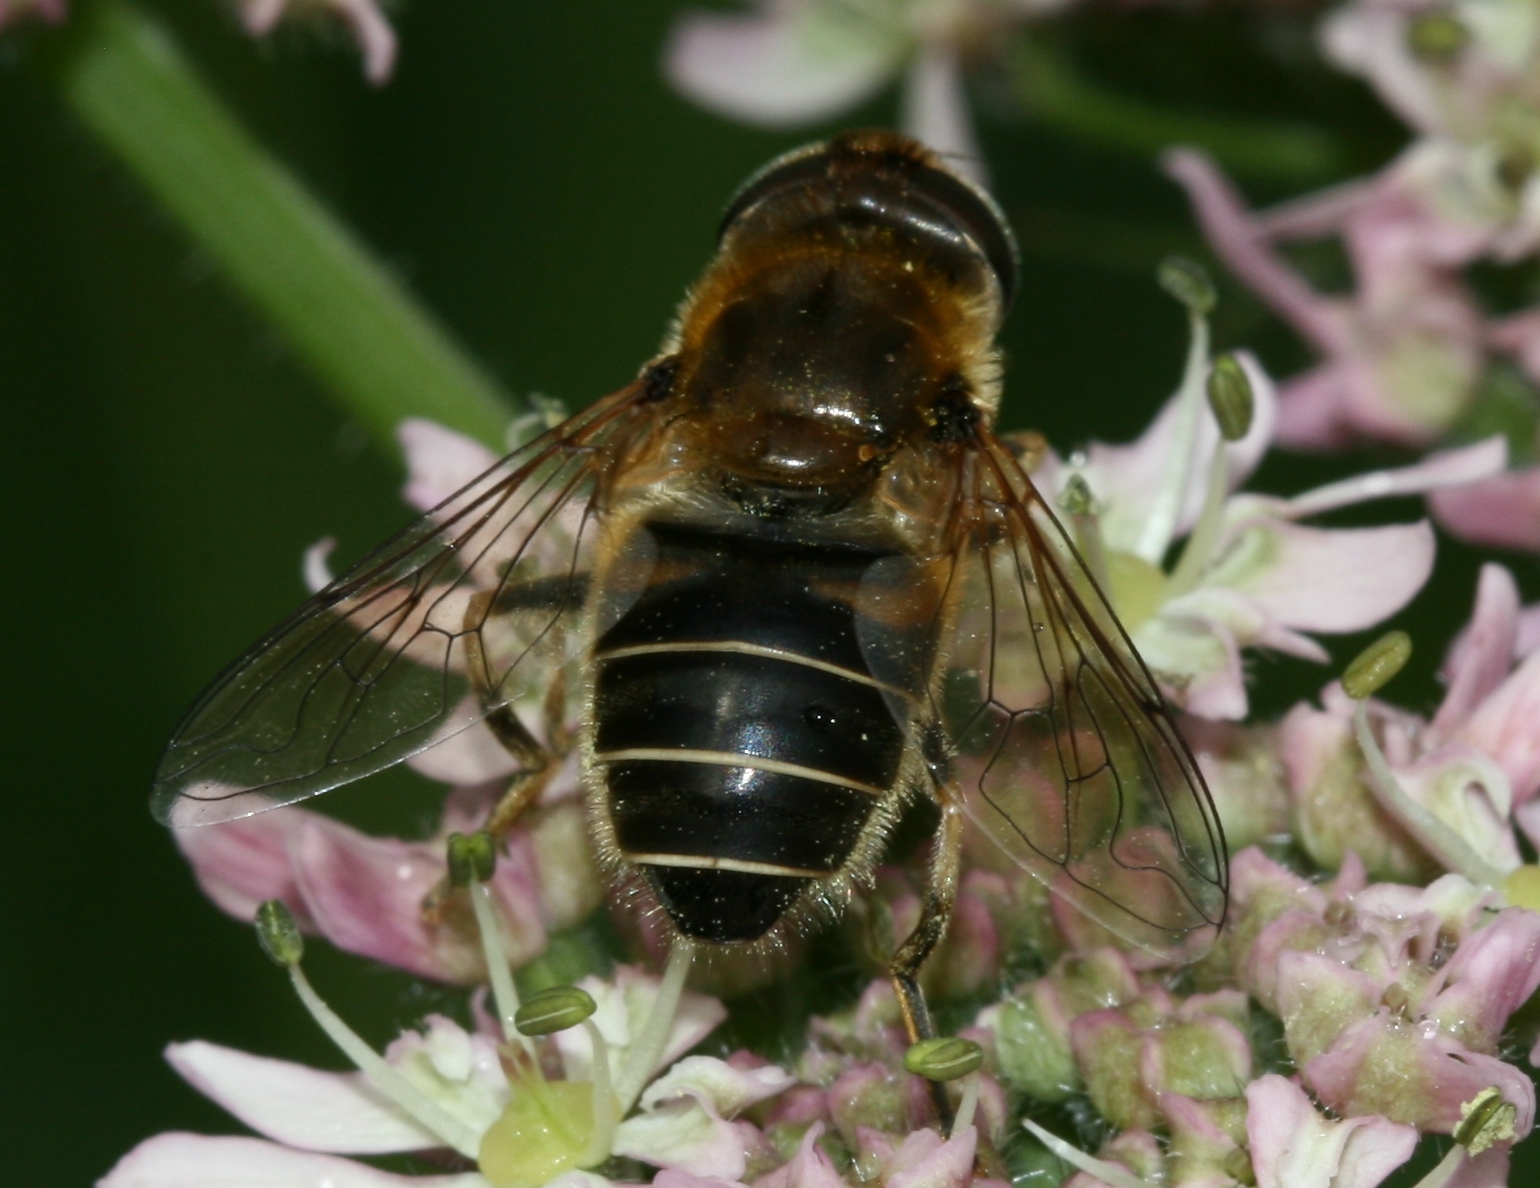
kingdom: Animalia
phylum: Arthropoda
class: Insecta
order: Diptera
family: Syrphidae
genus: Eristalis
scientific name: Eristalis nemorum
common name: Orange-spined drone fly
